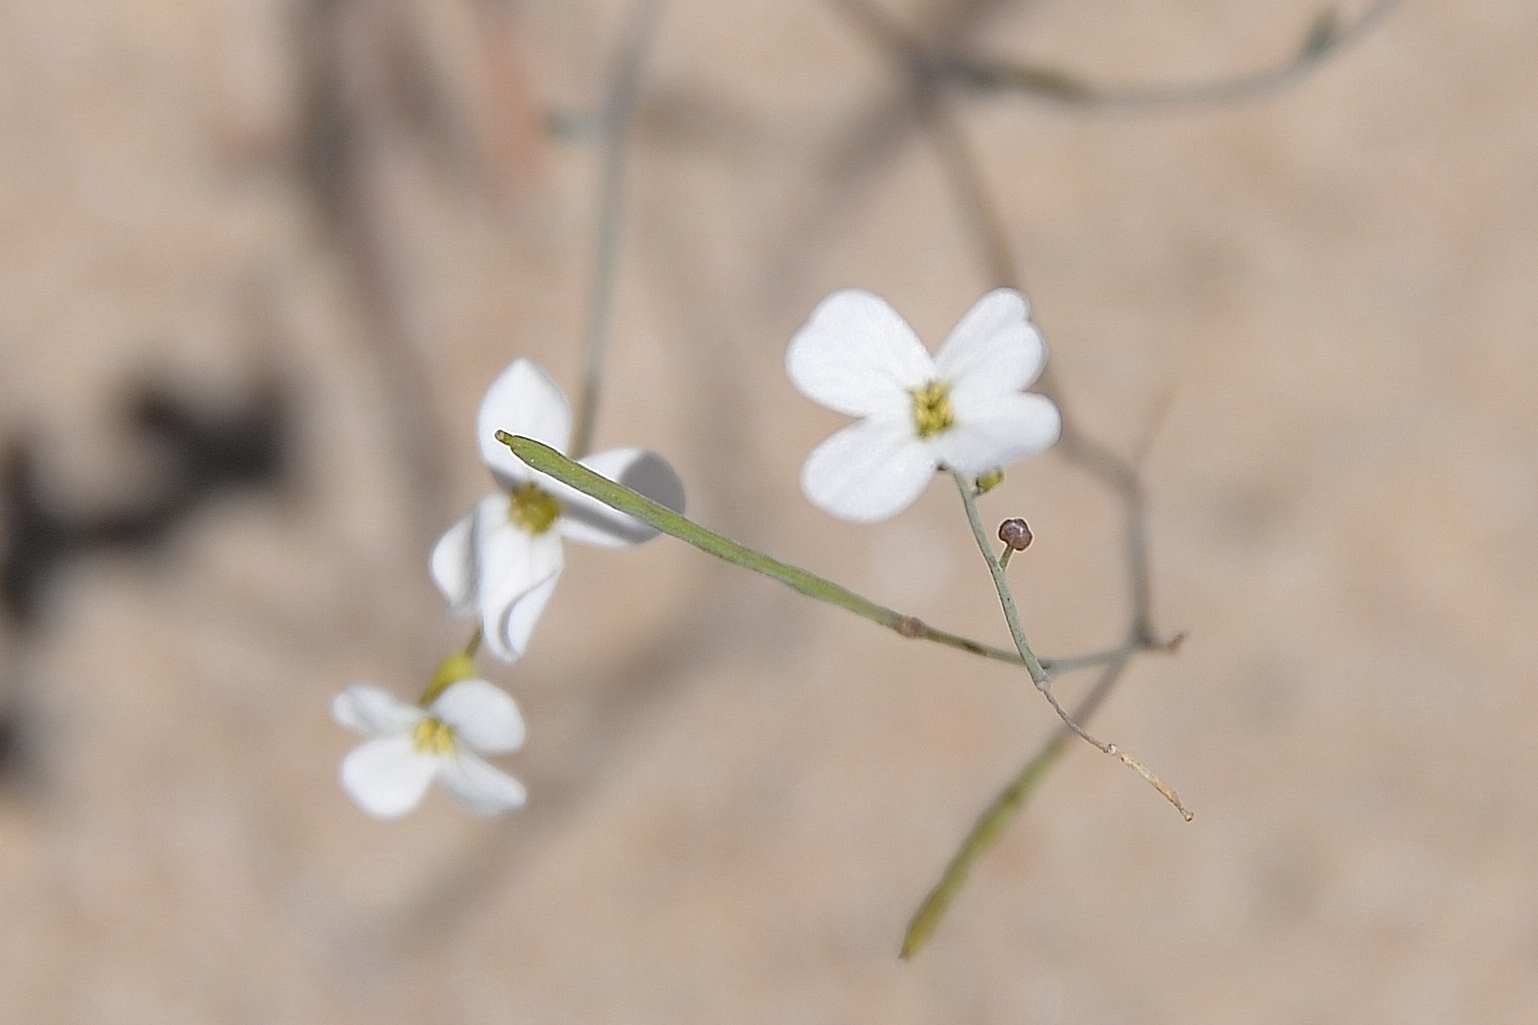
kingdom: Plantae
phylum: Tracheophyta
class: Magnoliopsida
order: Brassicales
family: Brassicaceae
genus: Arabidopsis
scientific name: Arabidopsis lyrata
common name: Lyrate rockcress
